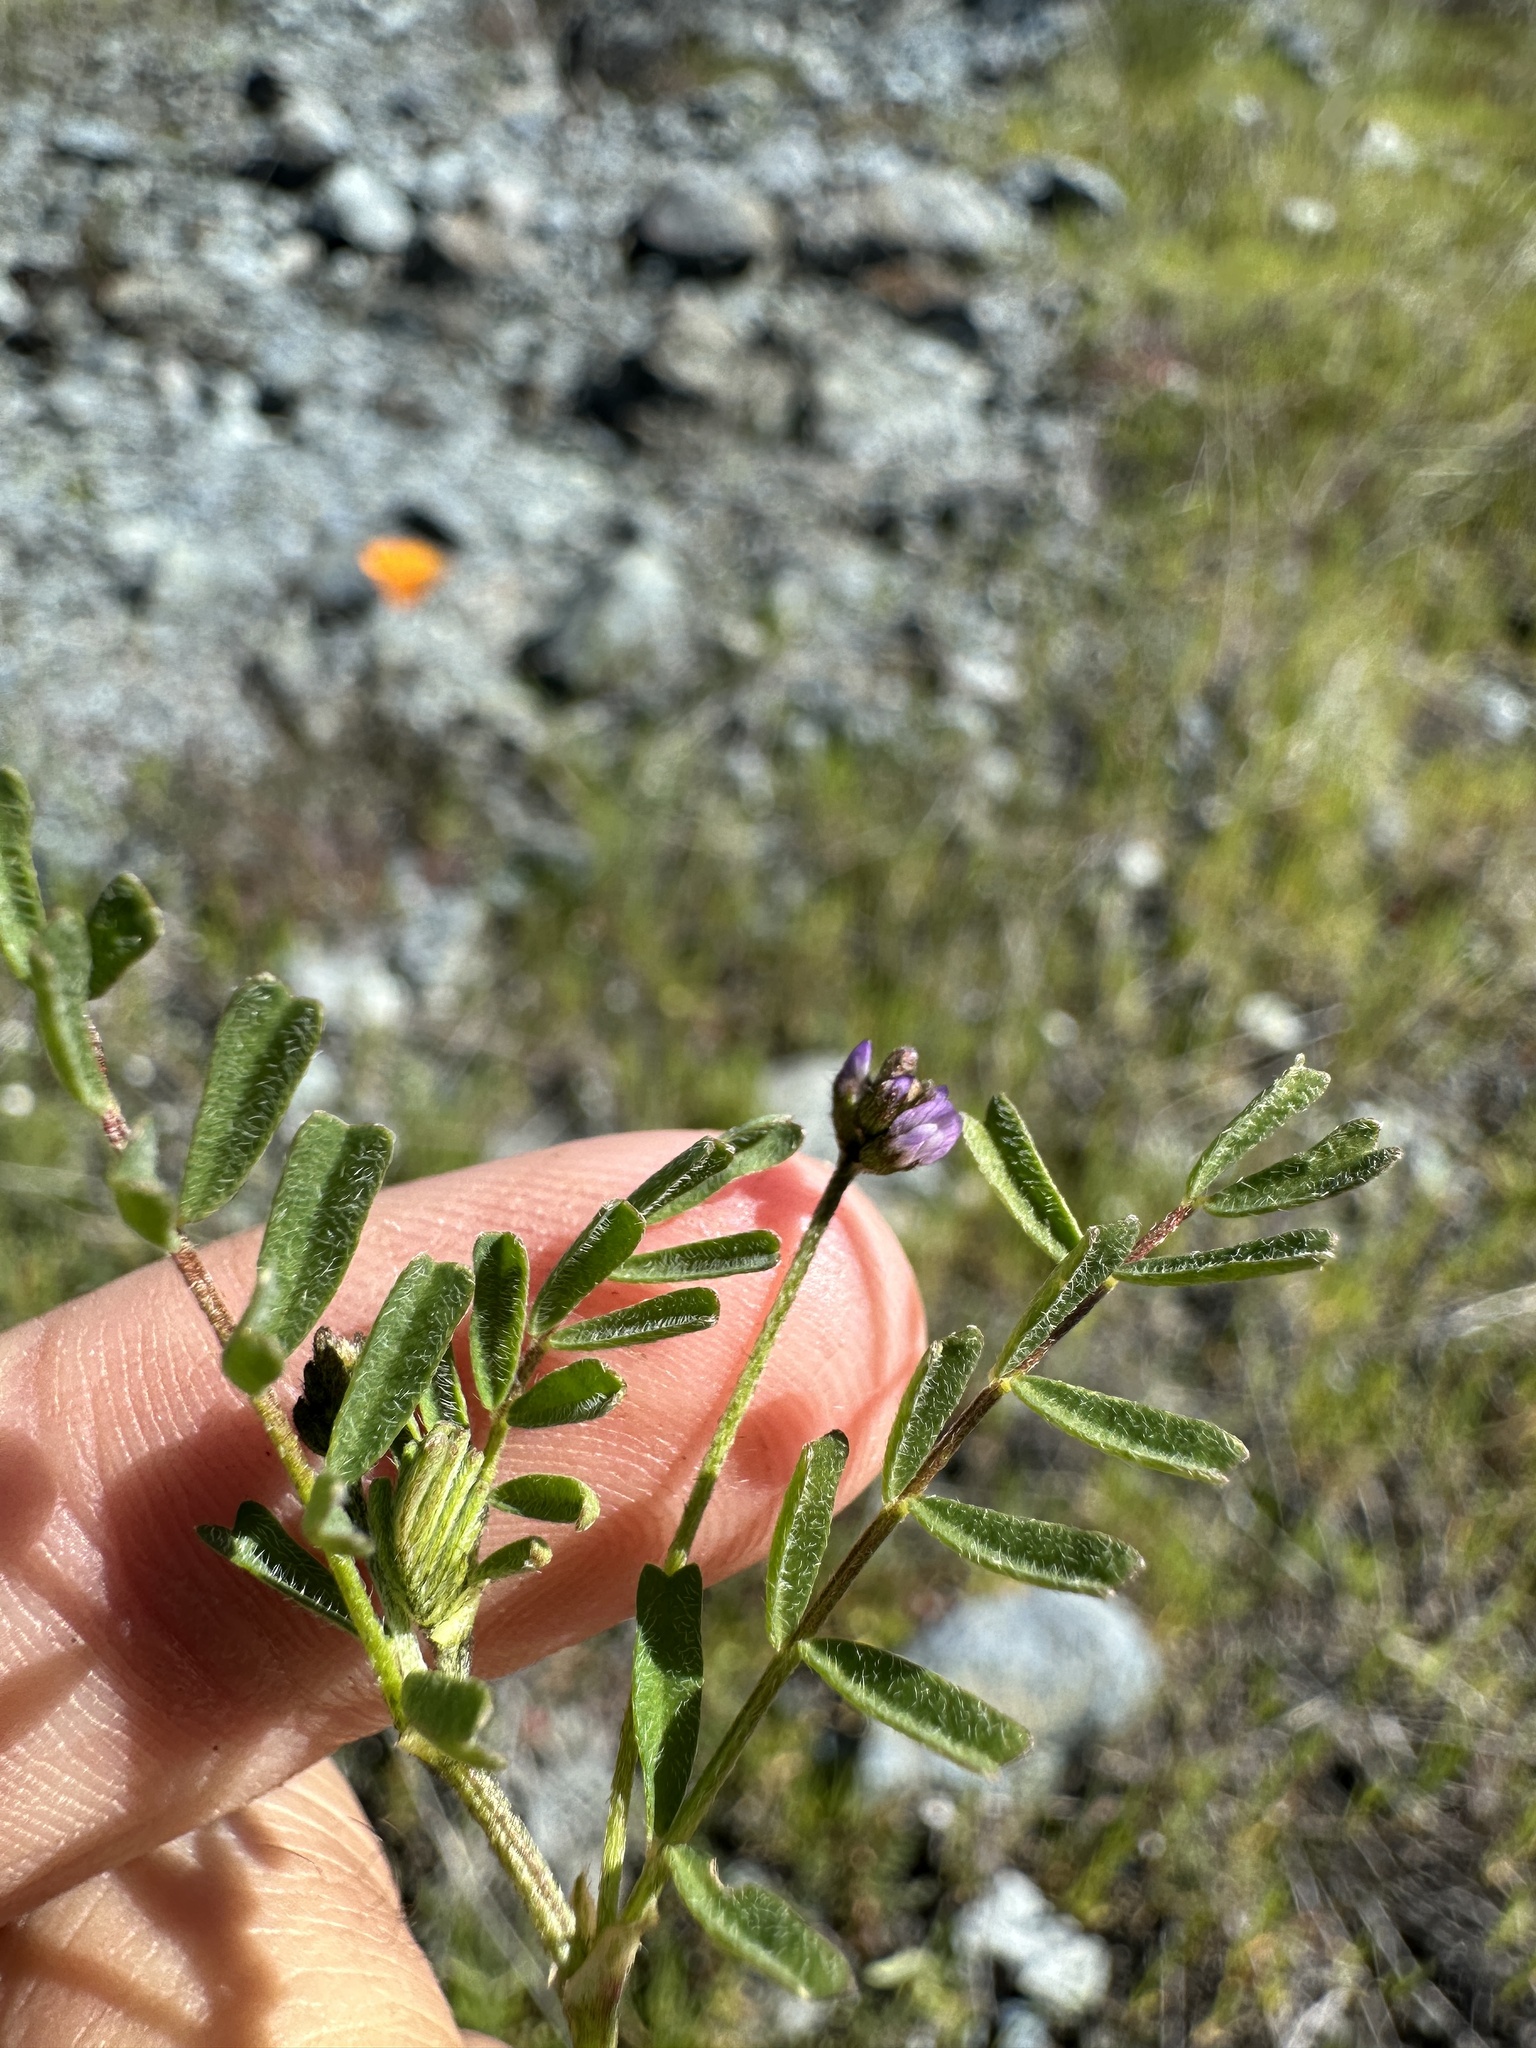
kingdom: Plantae
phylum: Tracheophyta
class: Magnoliopsida
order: Fabales
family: Fabaceae
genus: Astragalus
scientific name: Astragalus gambelianus
